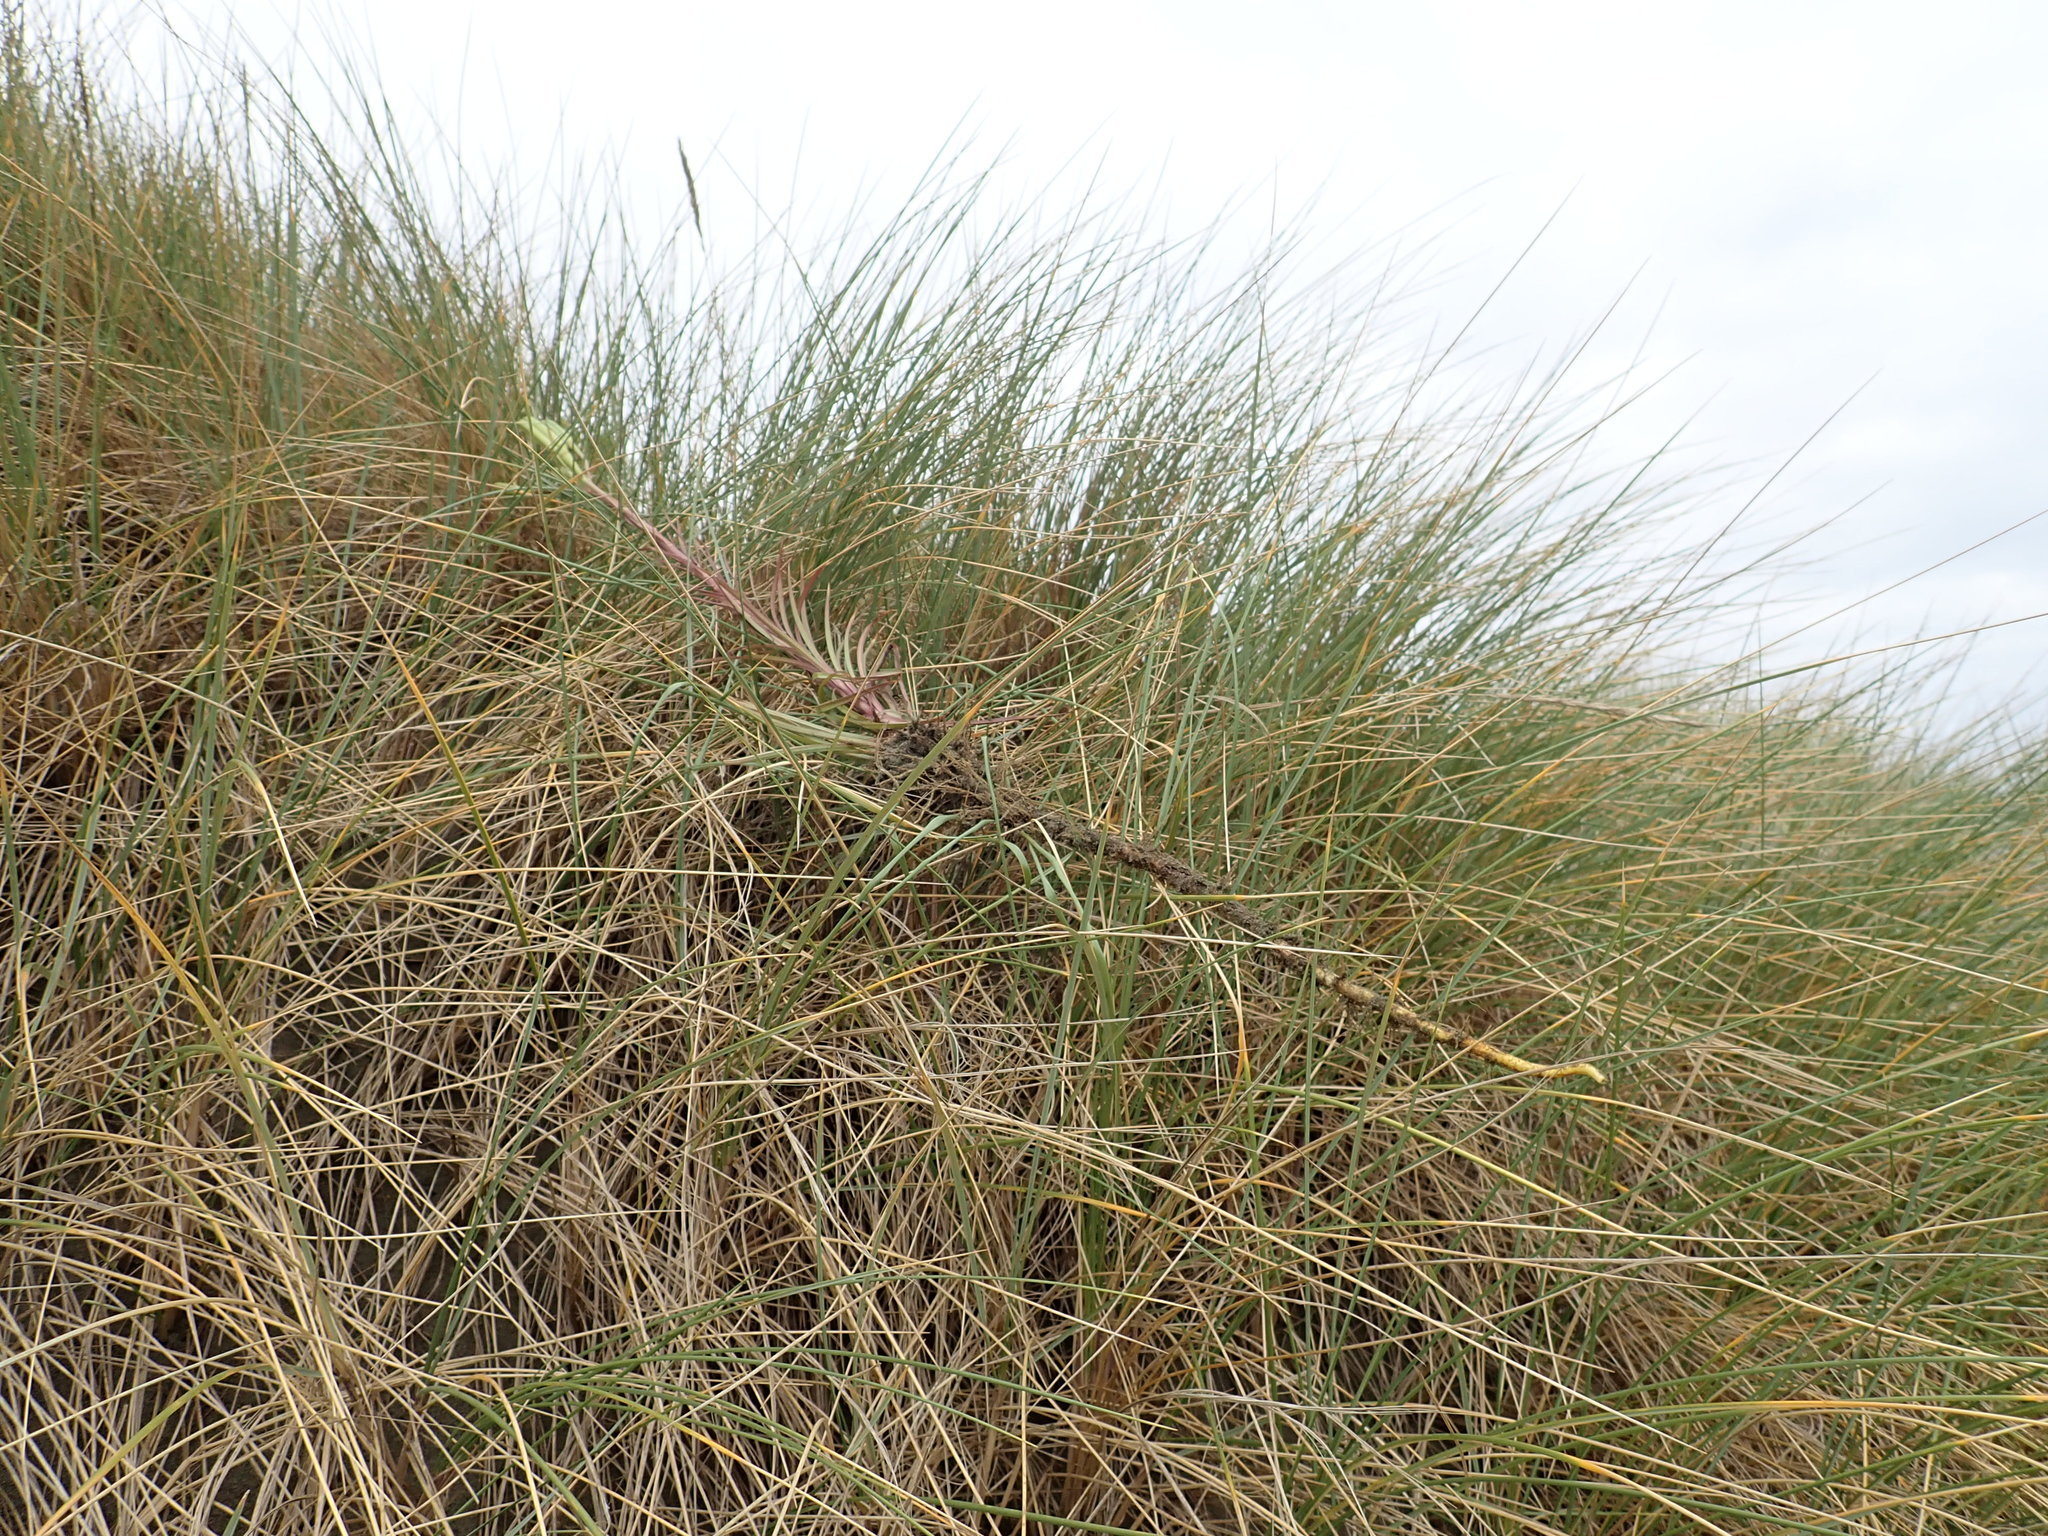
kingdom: Plantae
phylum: Tracheophyta
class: Liliopsida
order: Liliales
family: Liliaceae
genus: Lilium
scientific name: Lilium formosanum
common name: Formosa lily
